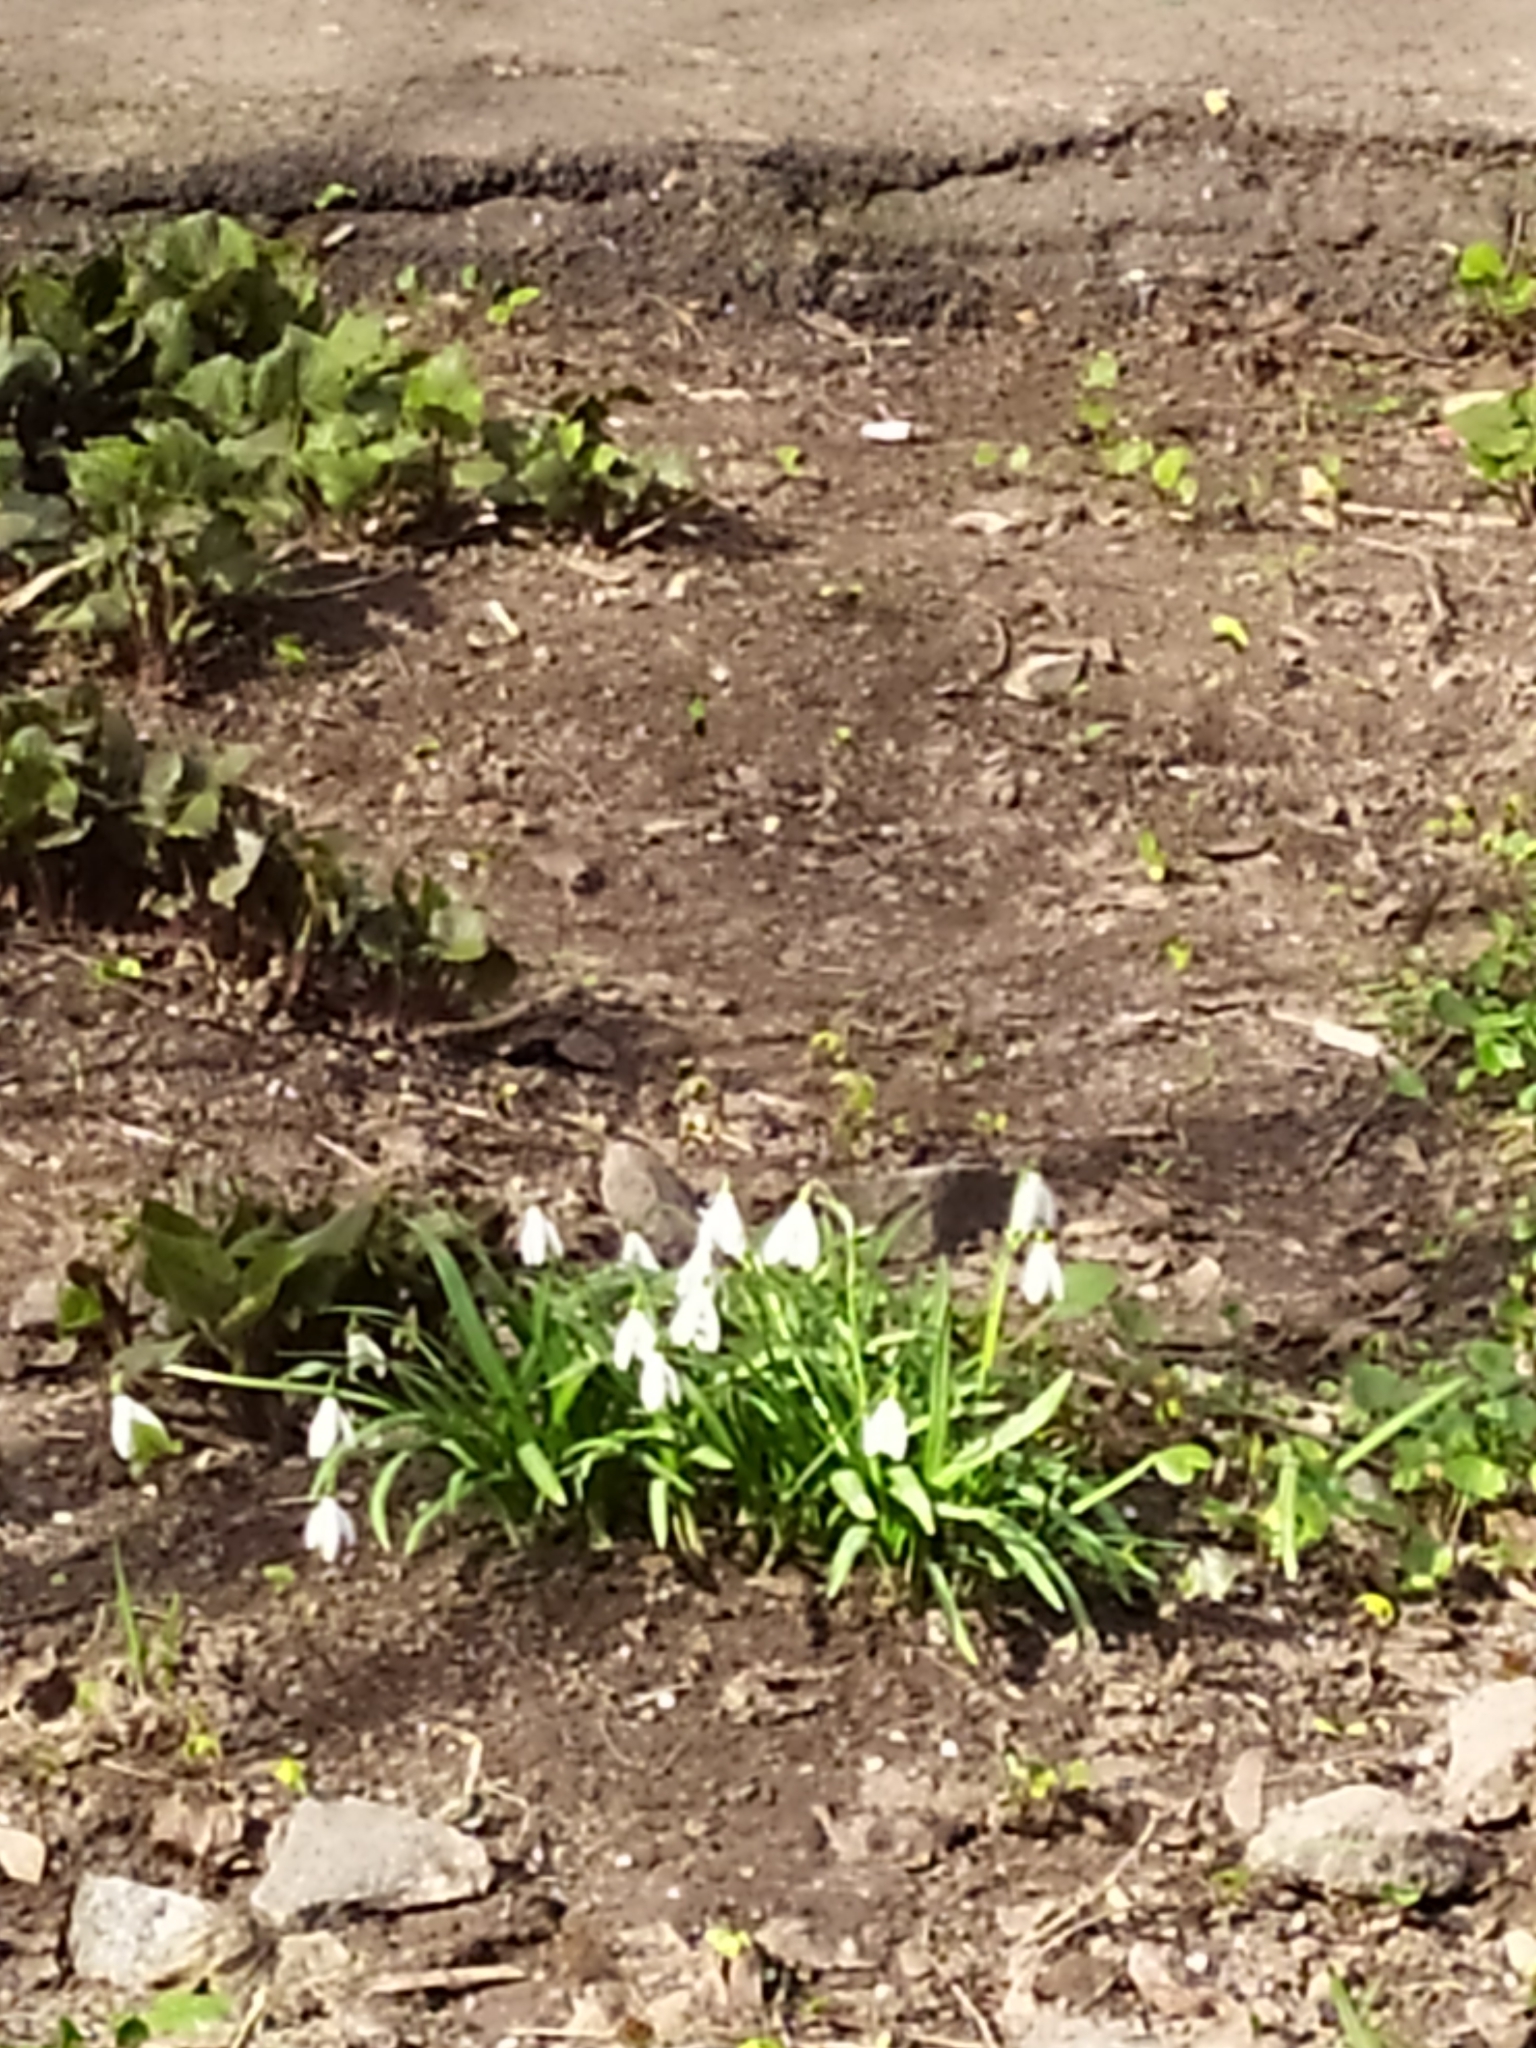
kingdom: Plantae
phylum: Tracheophyta
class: Liliopsida
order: Asparagales
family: Amaryllidaceae
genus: Galanthus
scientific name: Galanthus nivalis
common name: Snowdrop
